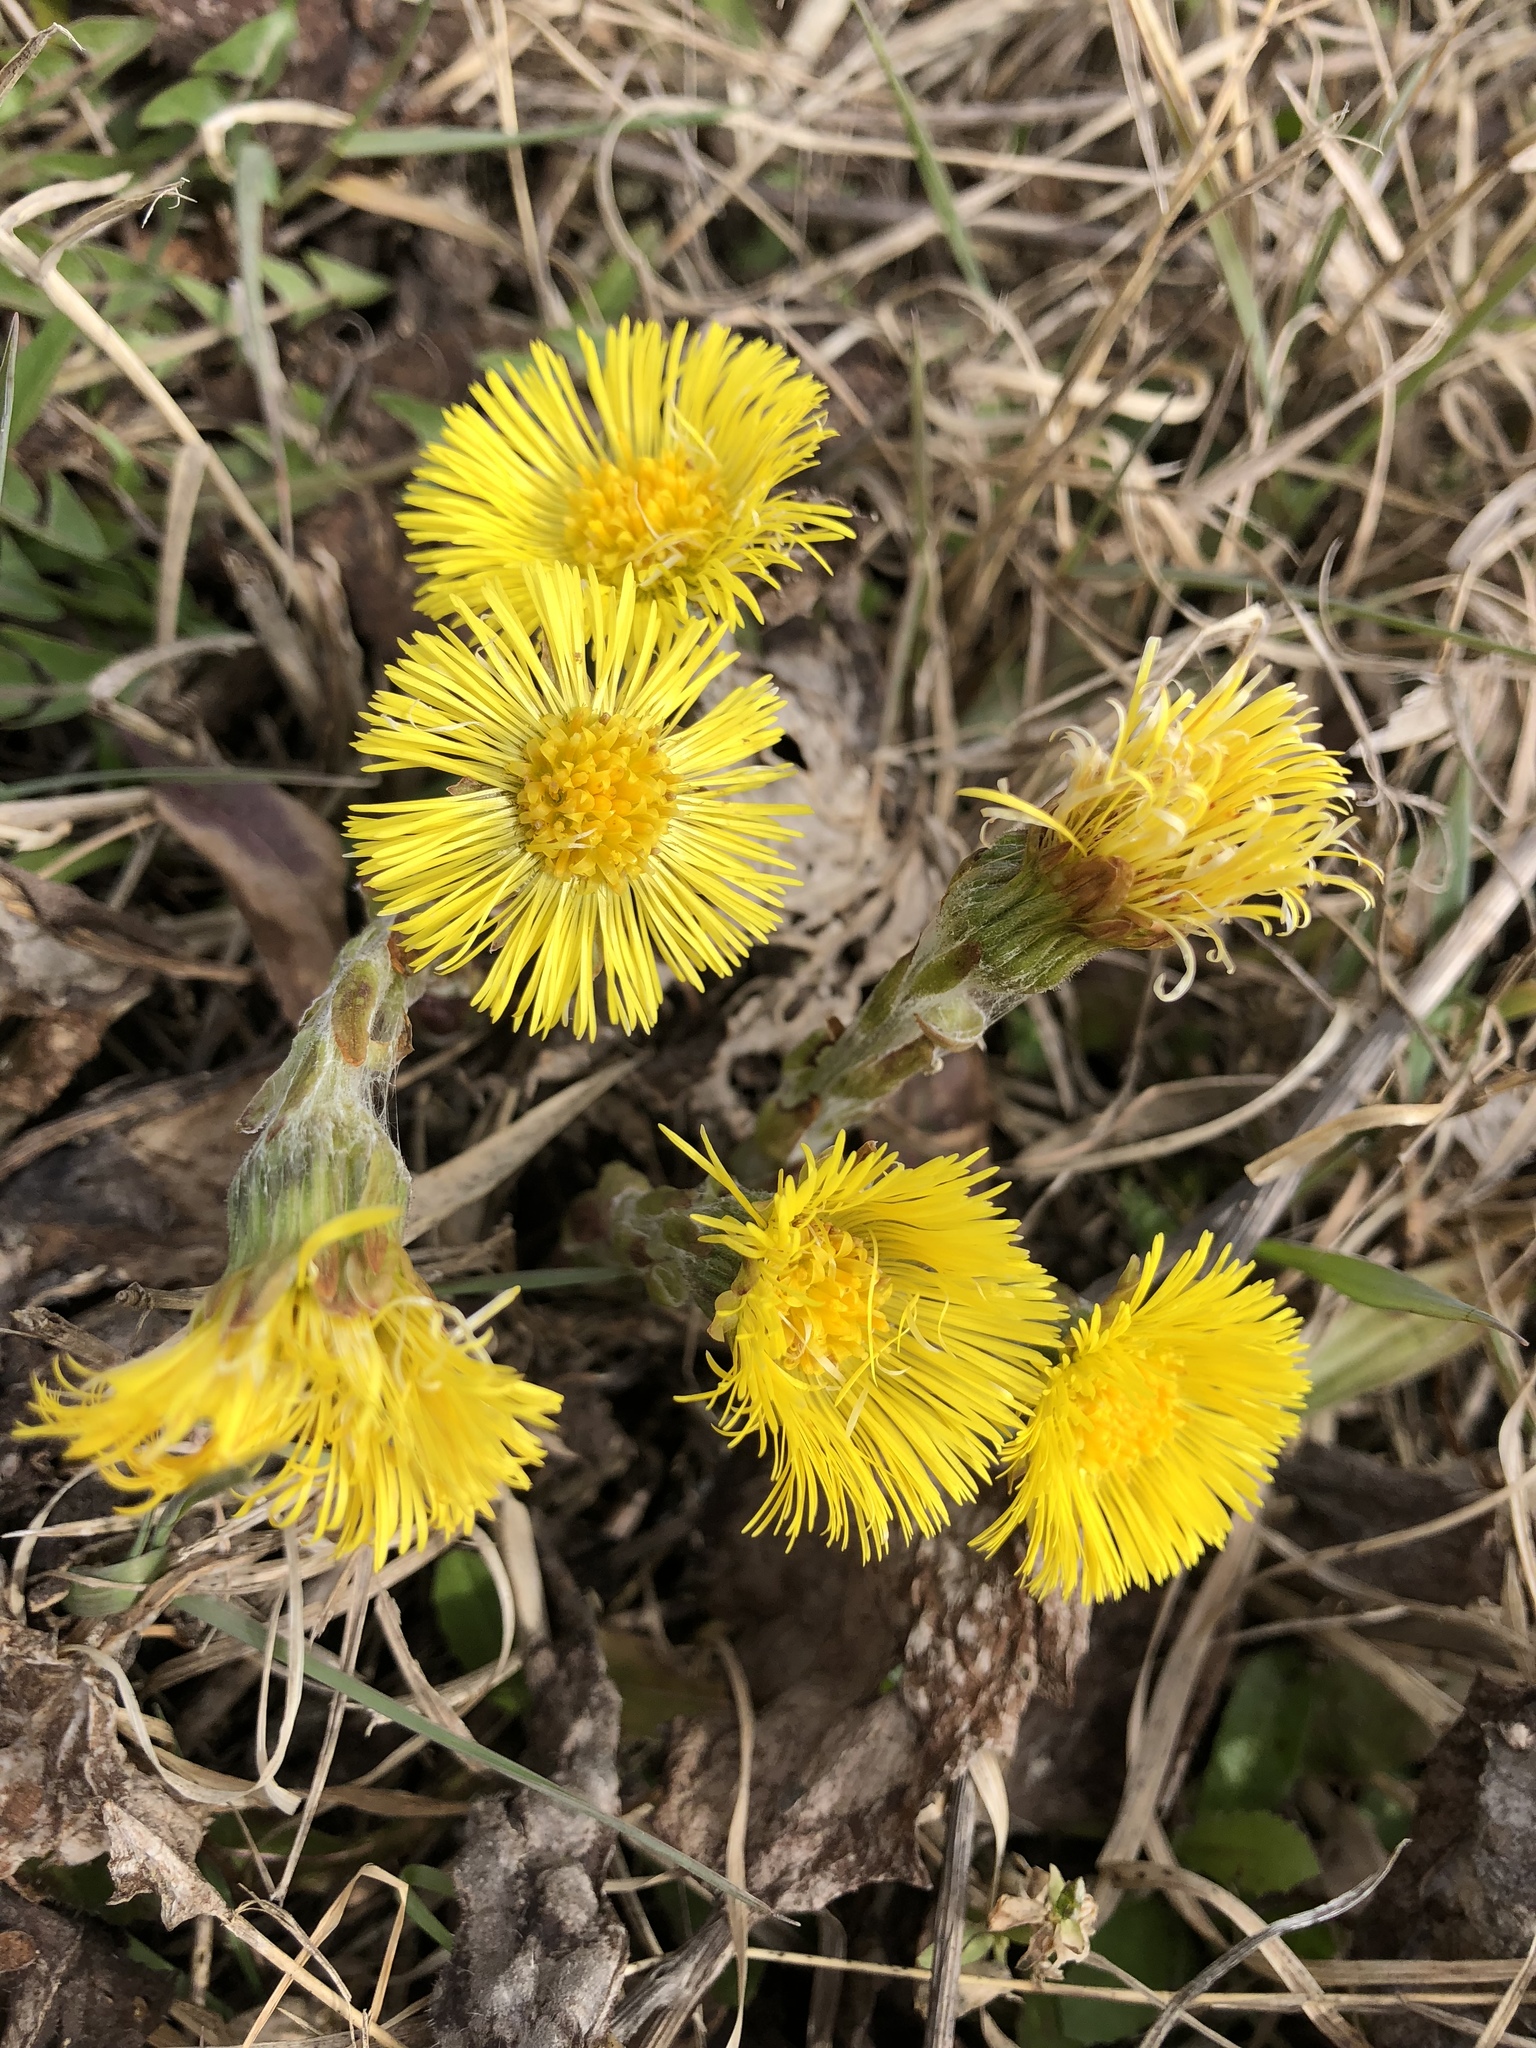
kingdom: Plantae
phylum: Tracheophyta
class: Magnoliopsida
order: Asterales
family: Asteraceae
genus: Tussilago
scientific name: Tussilago farfara
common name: Coltsfoot
